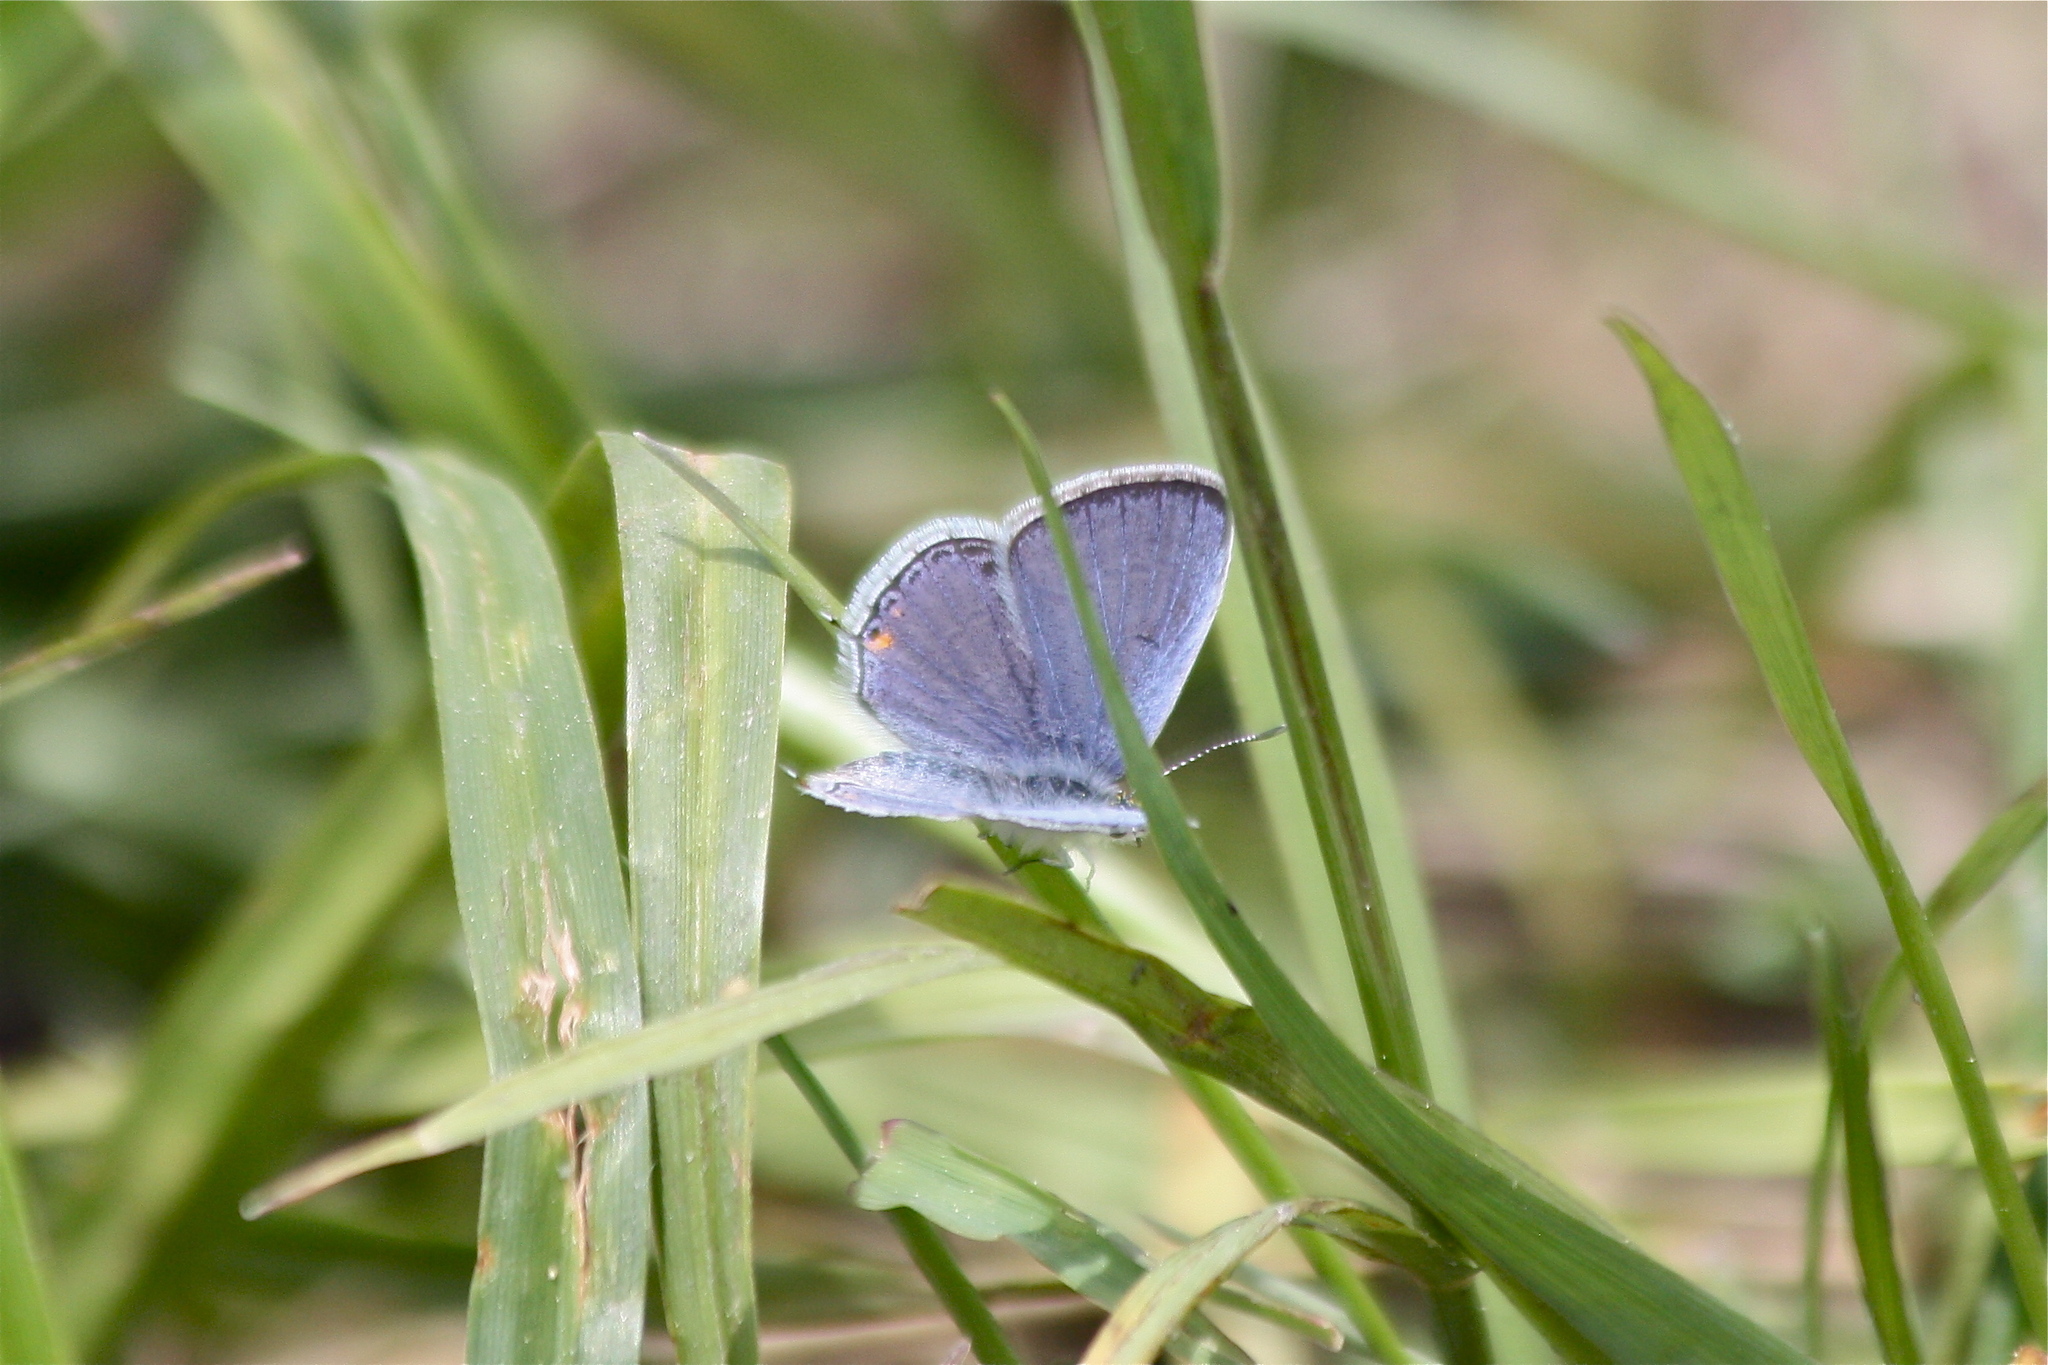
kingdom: Animalia
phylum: Arthropoda
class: Insecta
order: Lepidoptera
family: Lycaenidae
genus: Elkalyce
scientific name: Elkalyce comyntas
